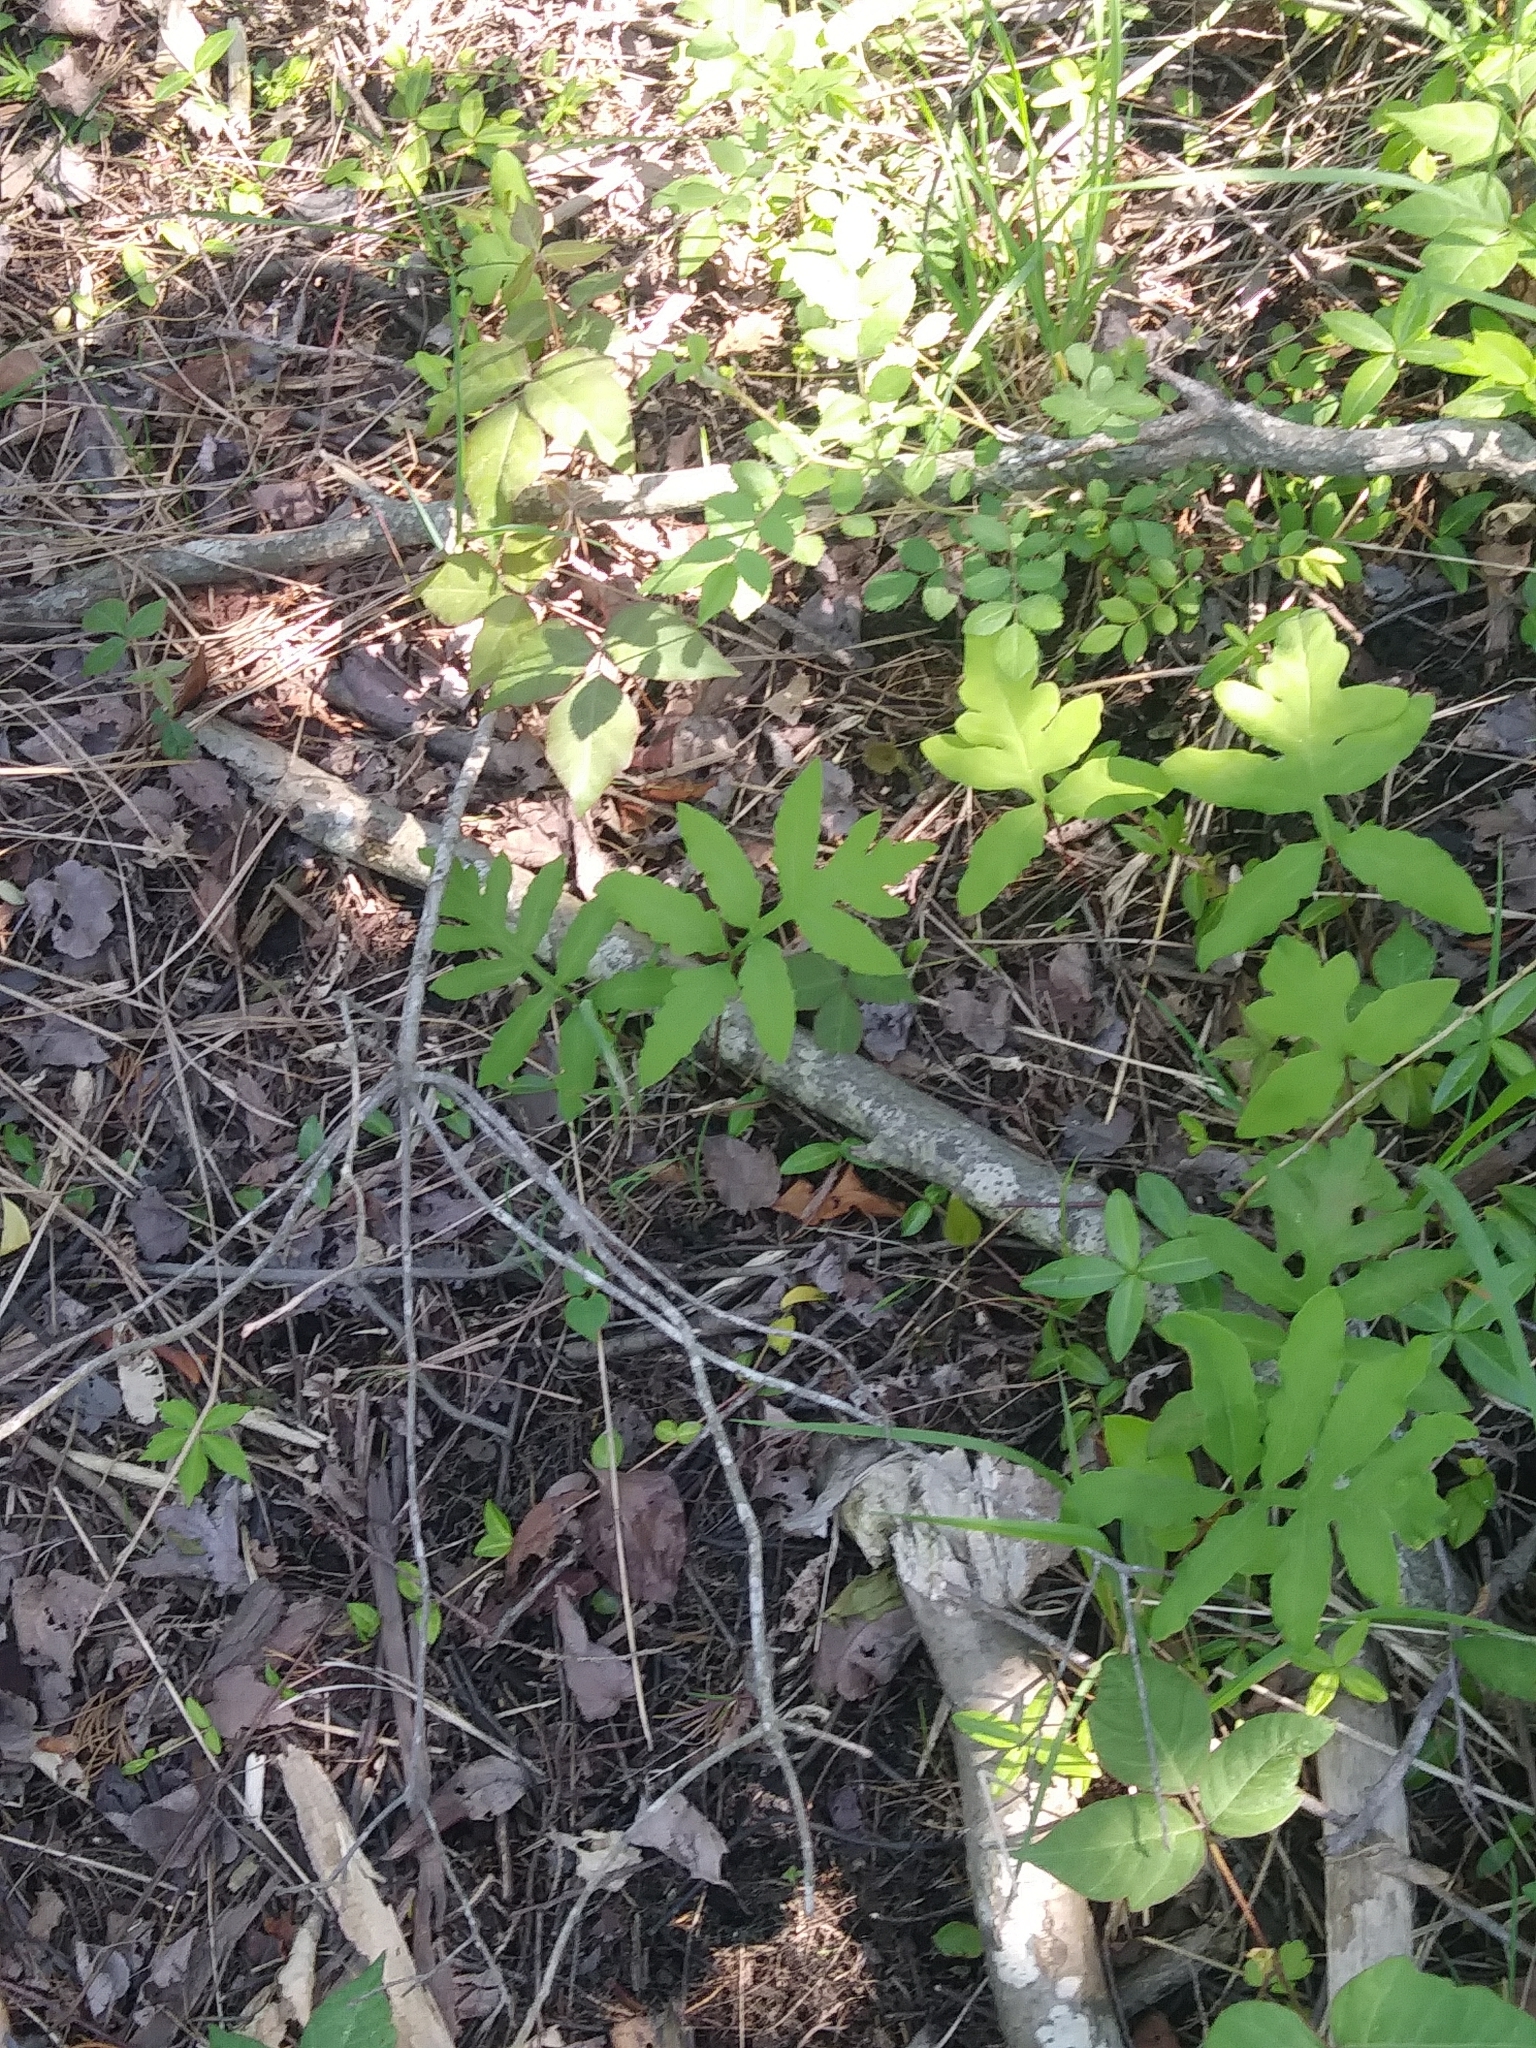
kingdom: Plantae
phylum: Tracheophyta
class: Polypodiopsida
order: Polypodiales
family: Onocleaceae
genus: Onoclea
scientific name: Onoclea sensibilis
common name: Sensitive fern
